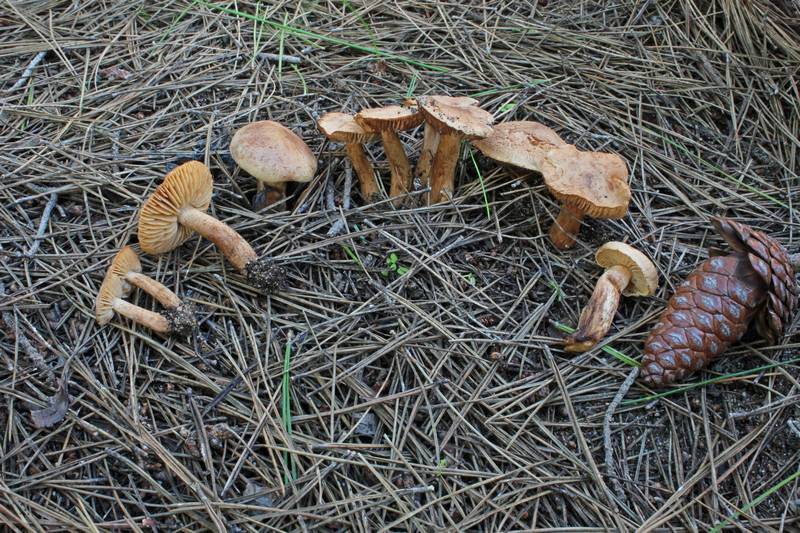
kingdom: Fungi
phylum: Basidiomycota
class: Agaricomycetes
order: Agaricales
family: Tricholomataceae
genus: Tricholoma
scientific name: Tricholoma psammopus
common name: Larch knight
